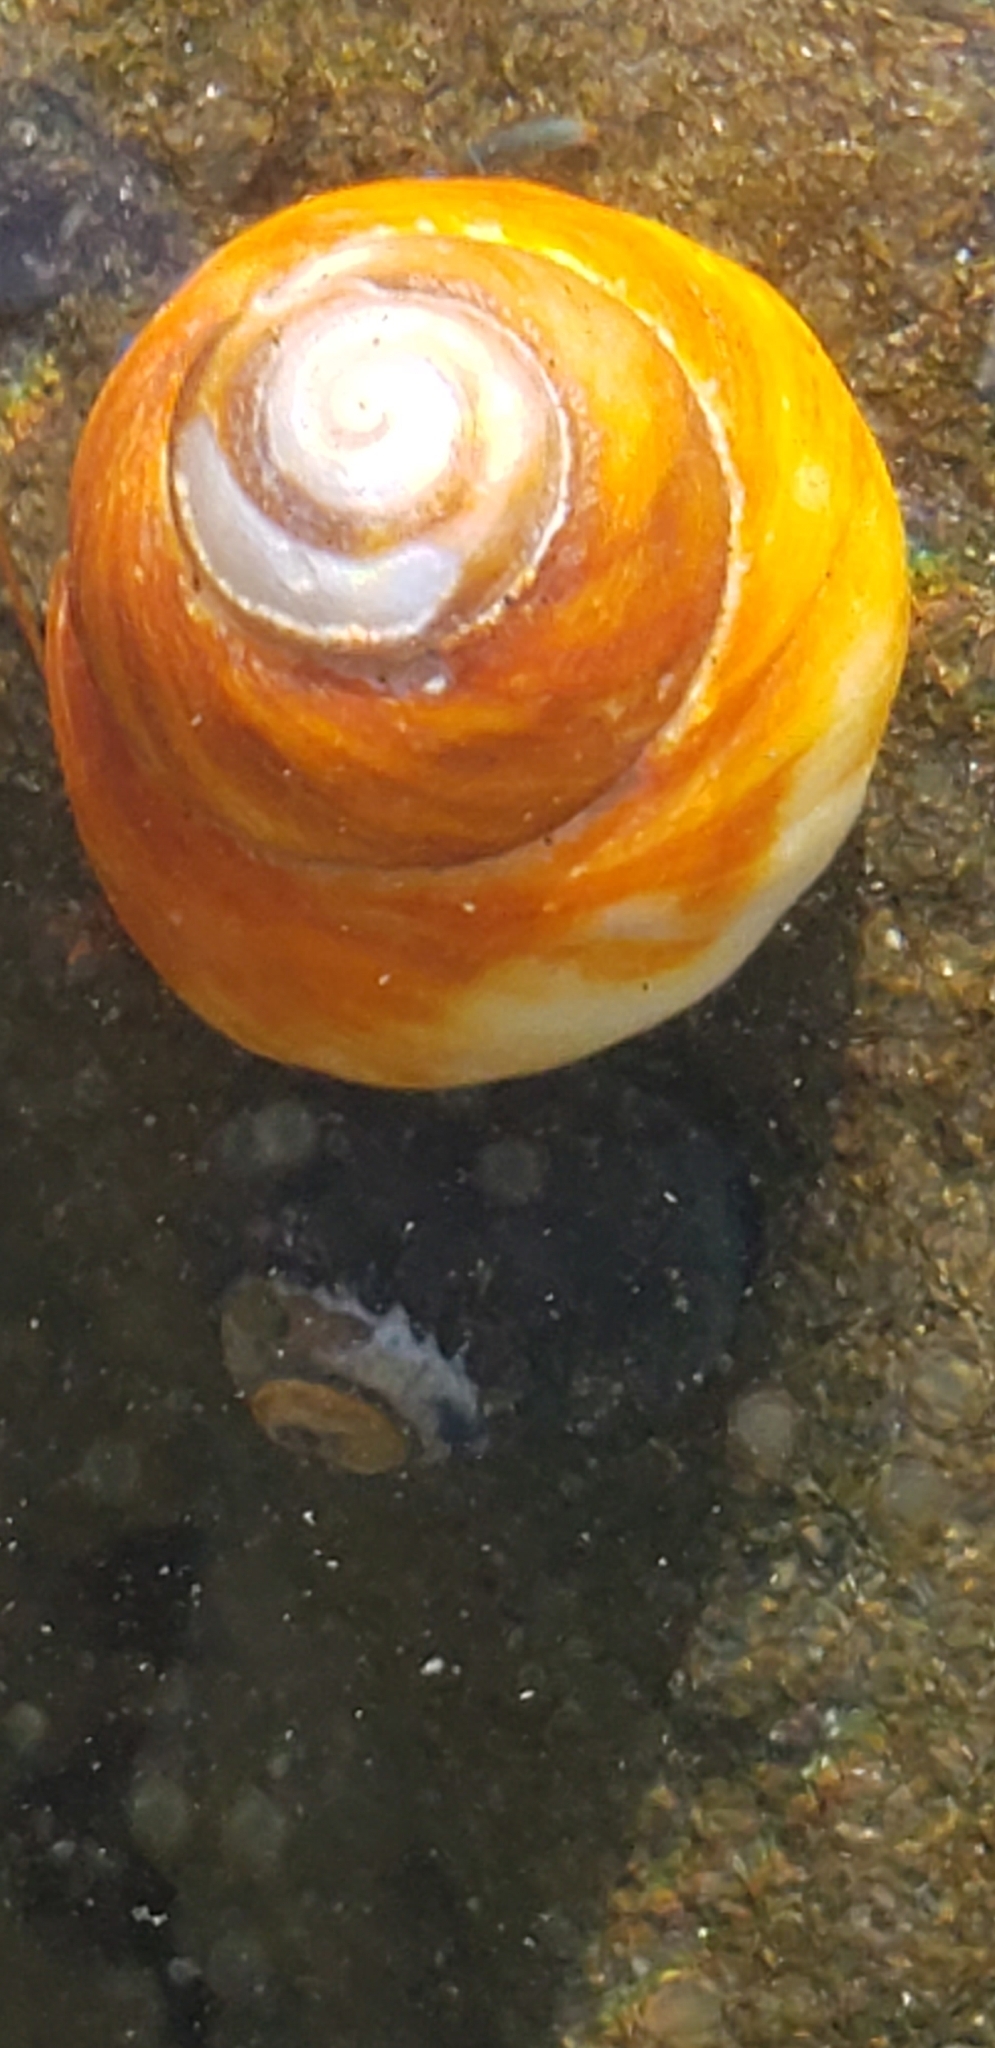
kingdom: Animalia
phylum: Mollusca
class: Gastropoda
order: Trochida
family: Tegulidae
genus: Tegula
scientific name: Tegula brunnea
